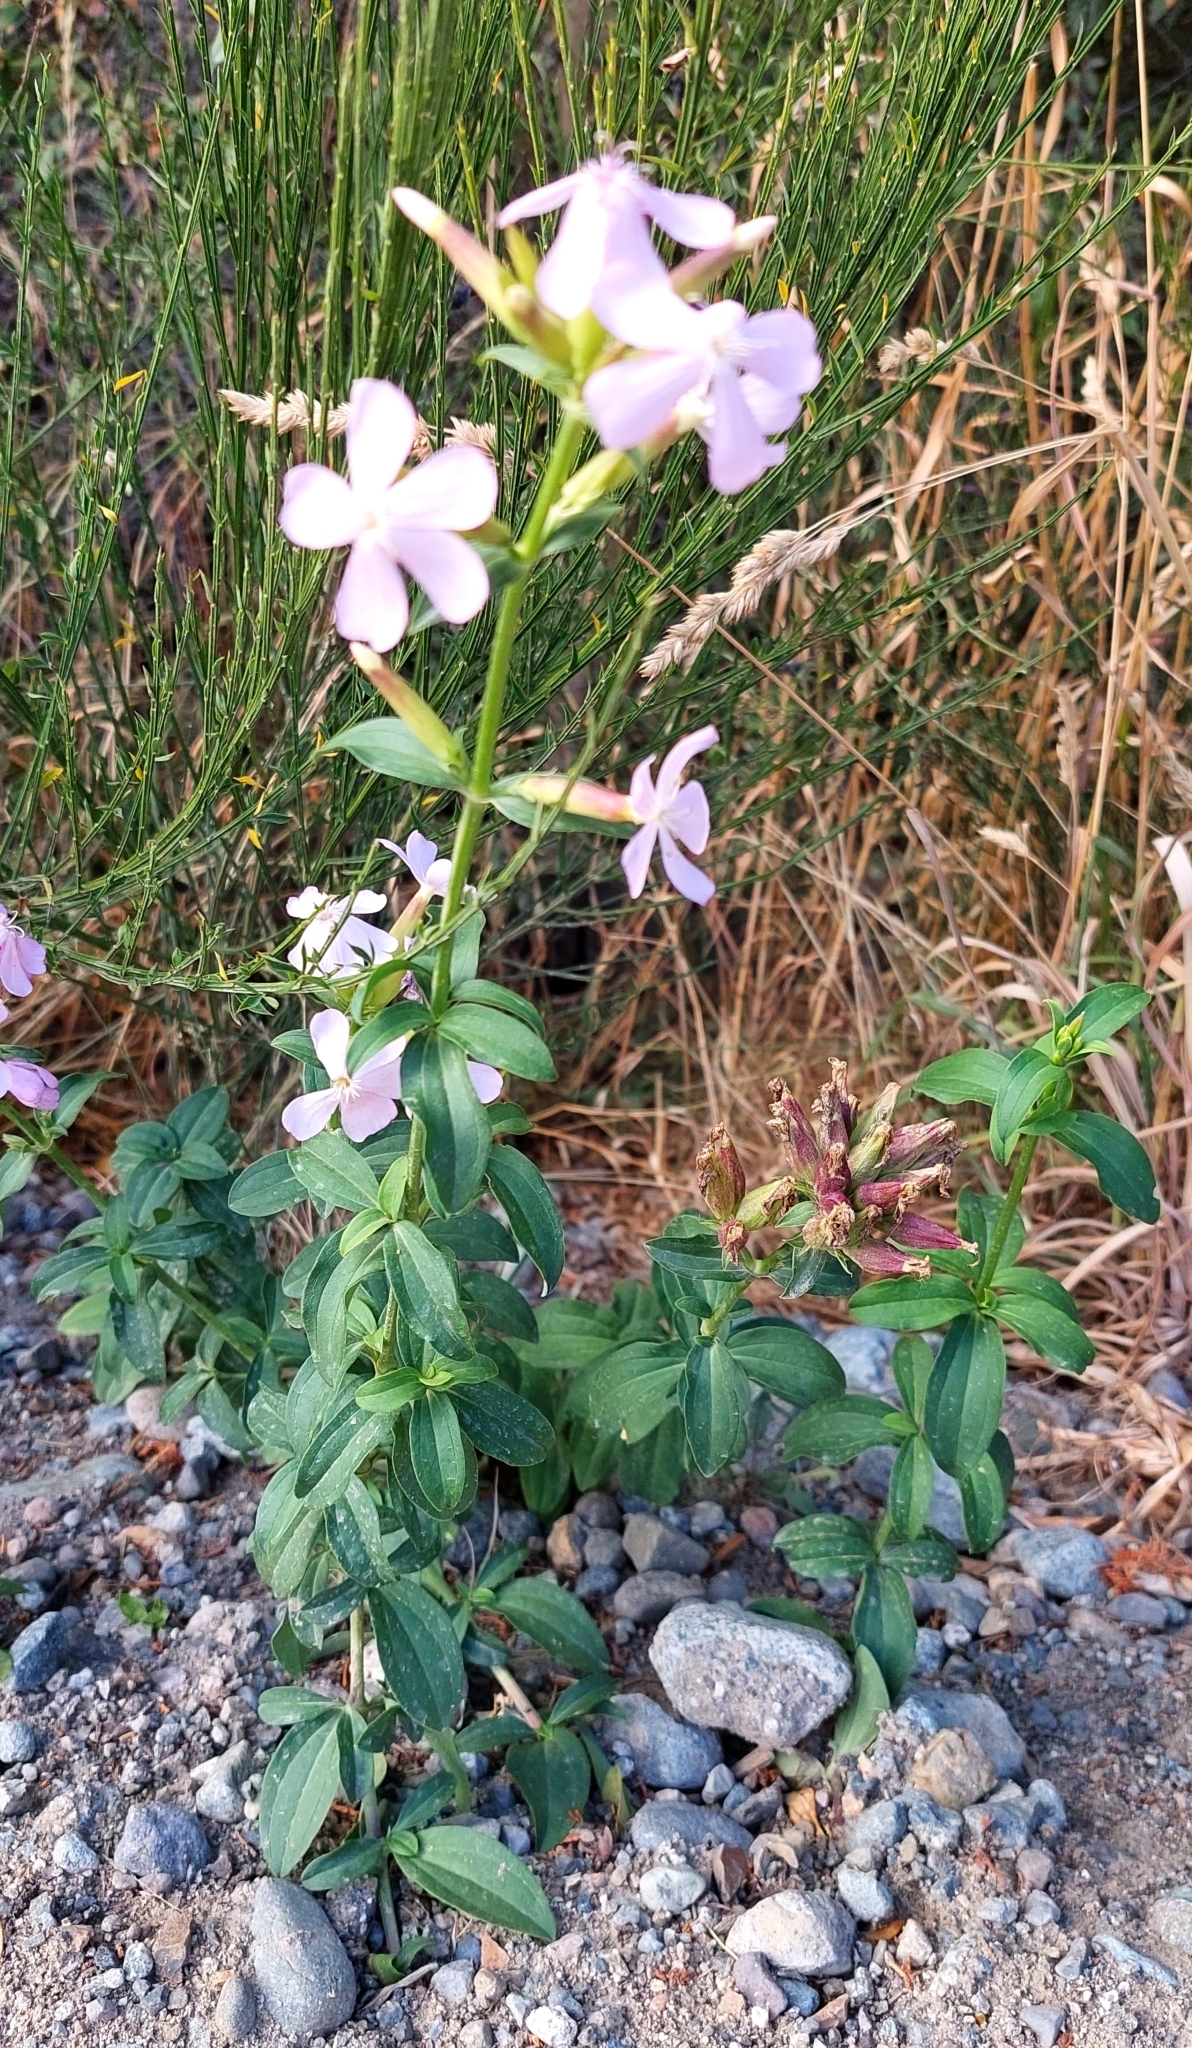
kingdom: Plantae
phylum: Tracheophyta
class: Magnoliopsida
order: Caryophyllales
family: Caryophyllaceae
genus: Saponaria
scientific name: Saponaria officinalis
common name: Soapwort
